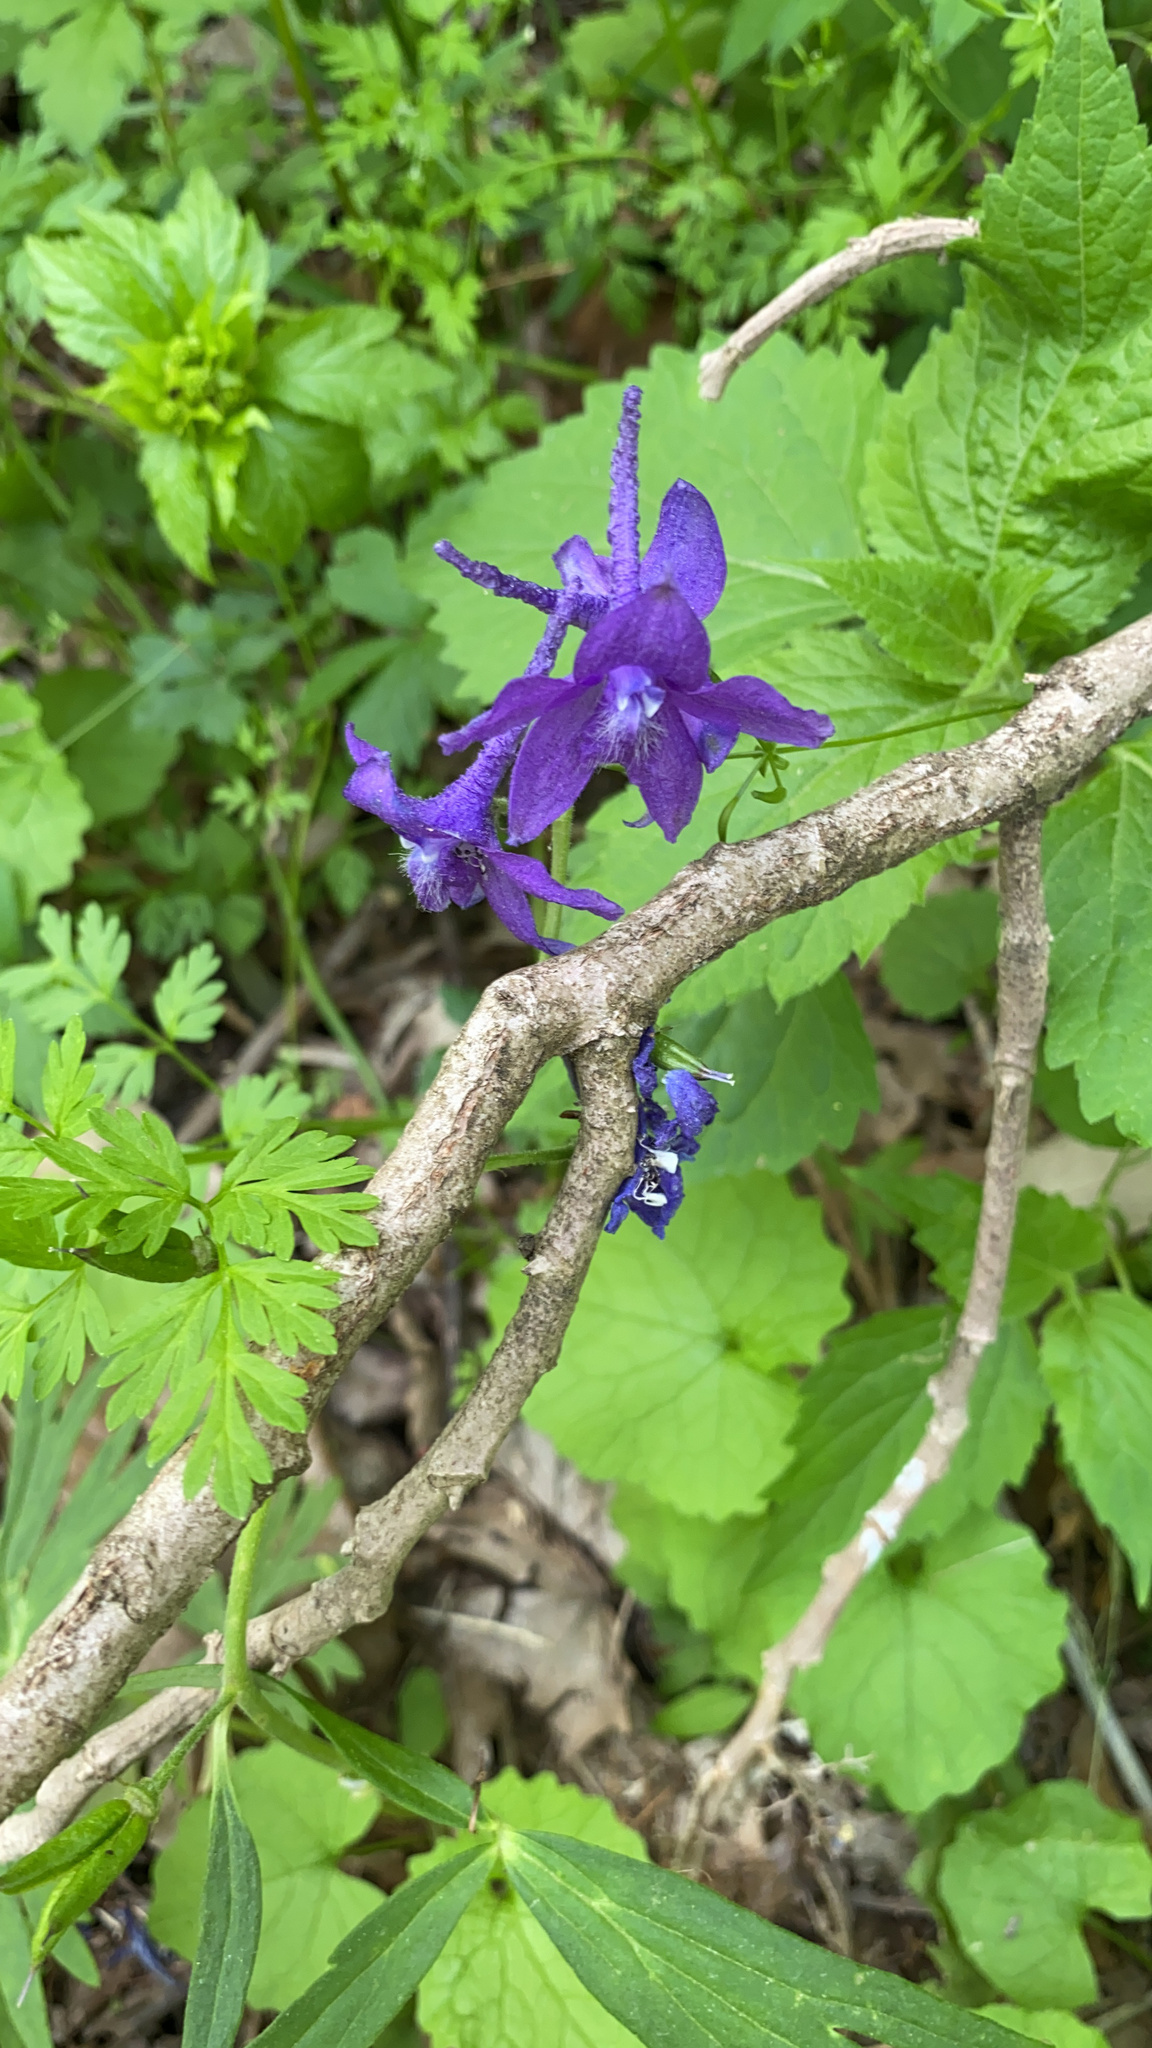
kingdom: Plantae
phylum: Tracheophyta
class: Magnoliopsida
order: Ranunculales
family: Ranunculaceae
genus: Delphinium
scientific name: Delphinium tricorne
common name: Dwarf larkspur
